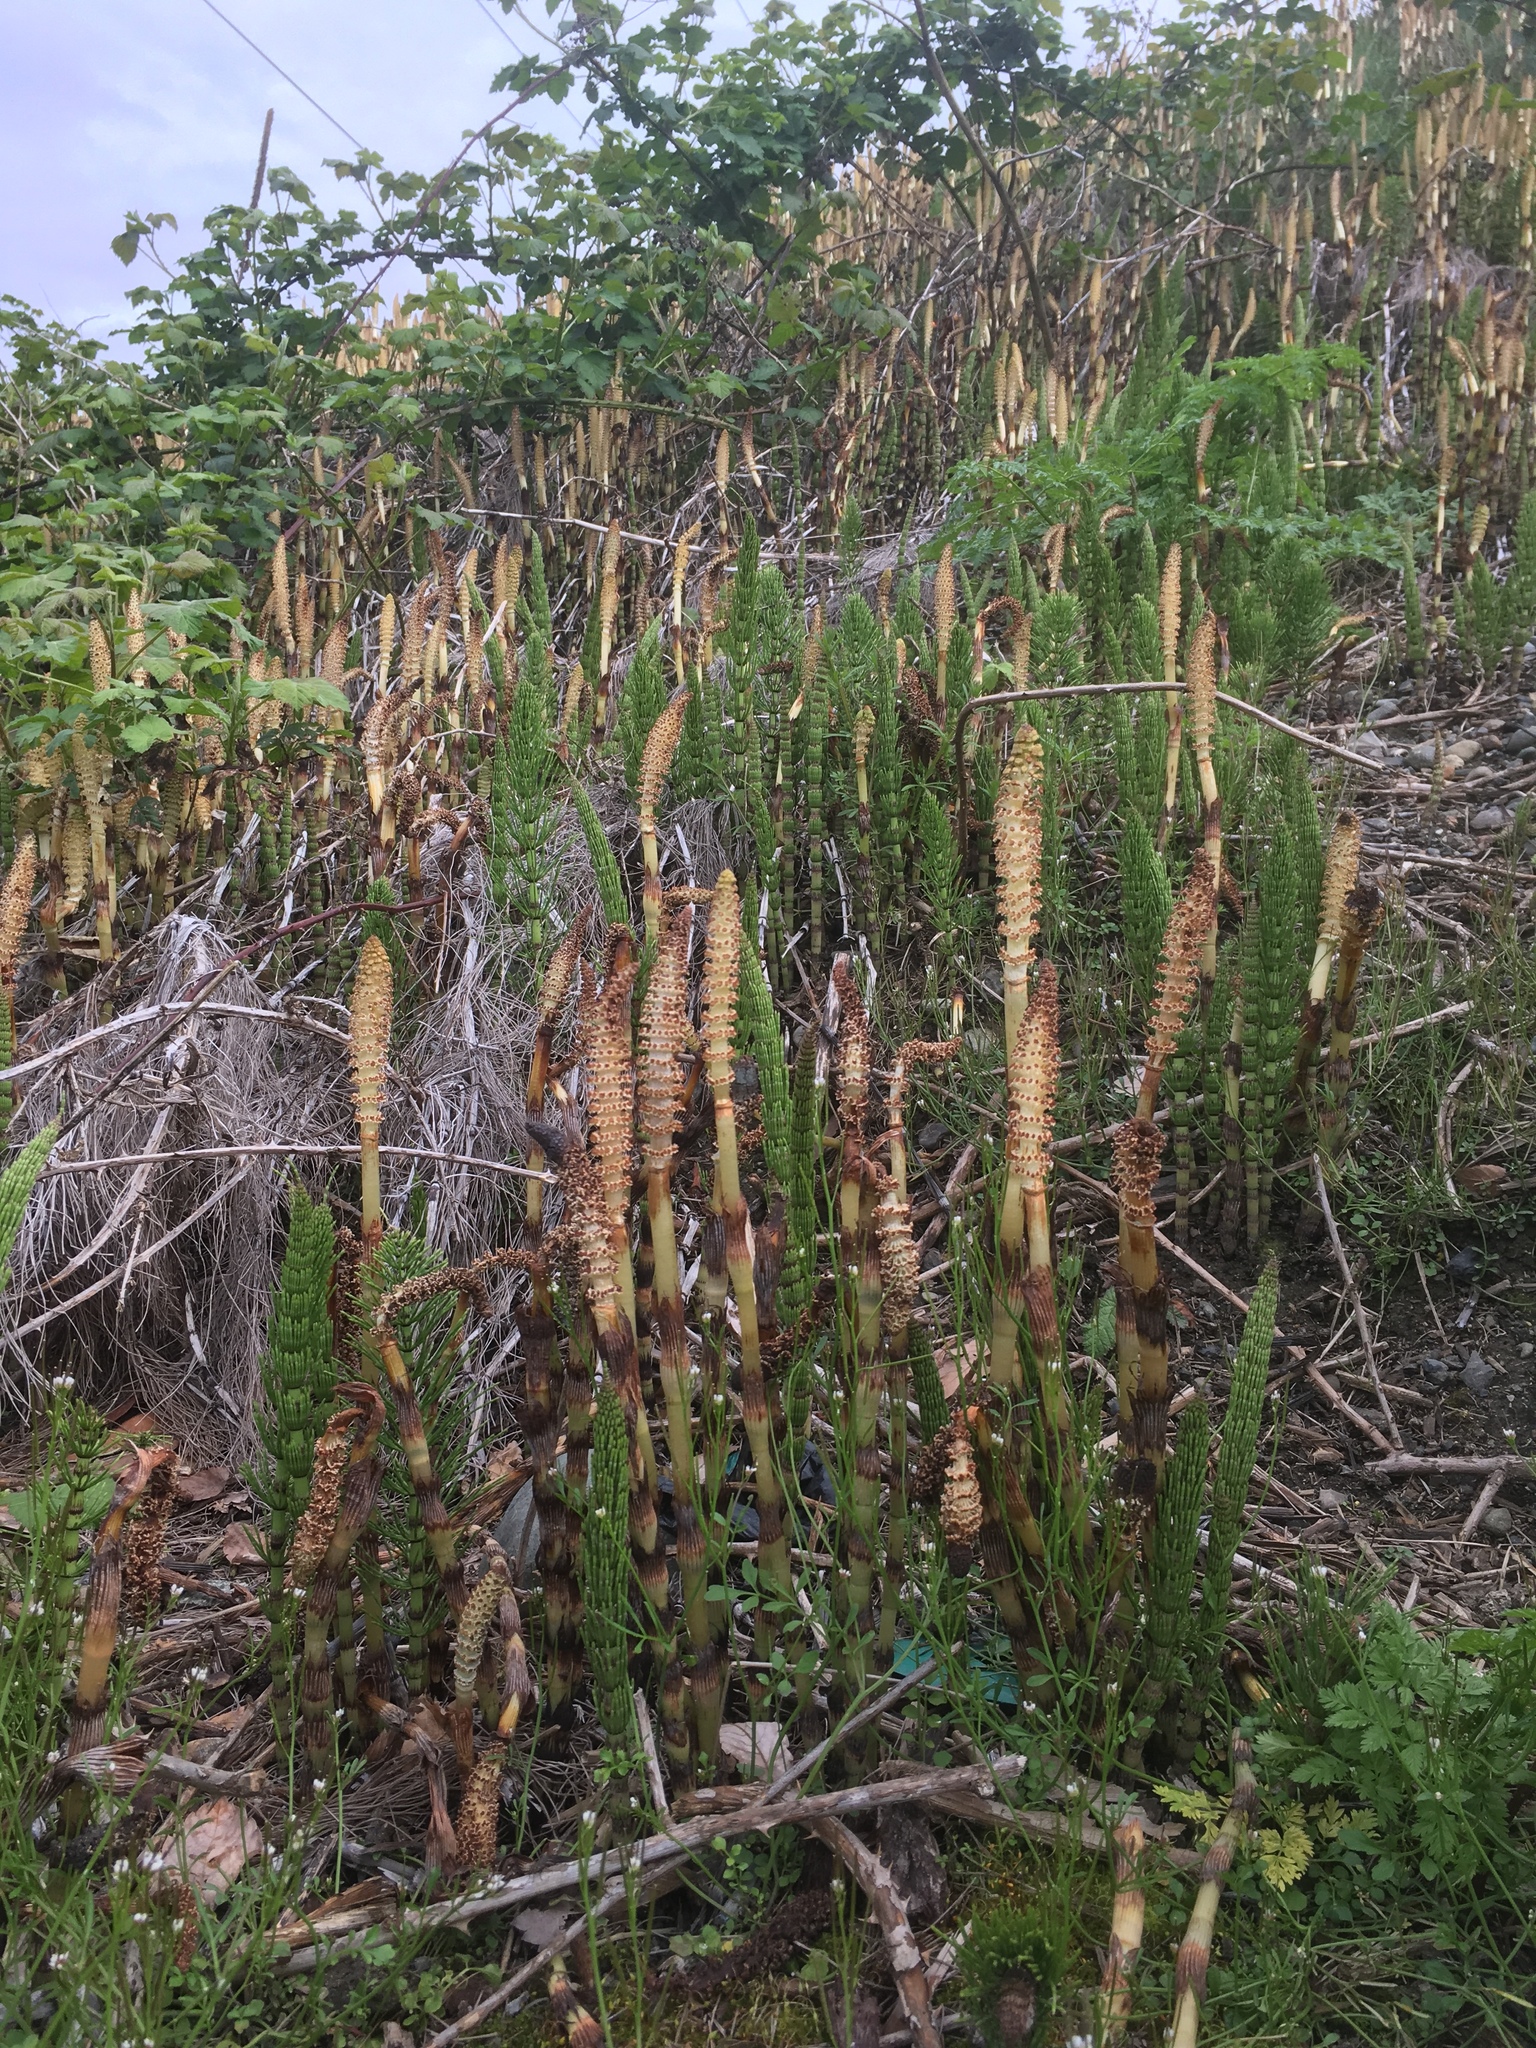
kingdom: Plantae
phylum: Tracheophyta
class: Polypodiopsida
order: Equisetales
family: Equisetaceae
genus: Equisetum
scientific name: Equisetum braunii
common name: Braun's horsetail
